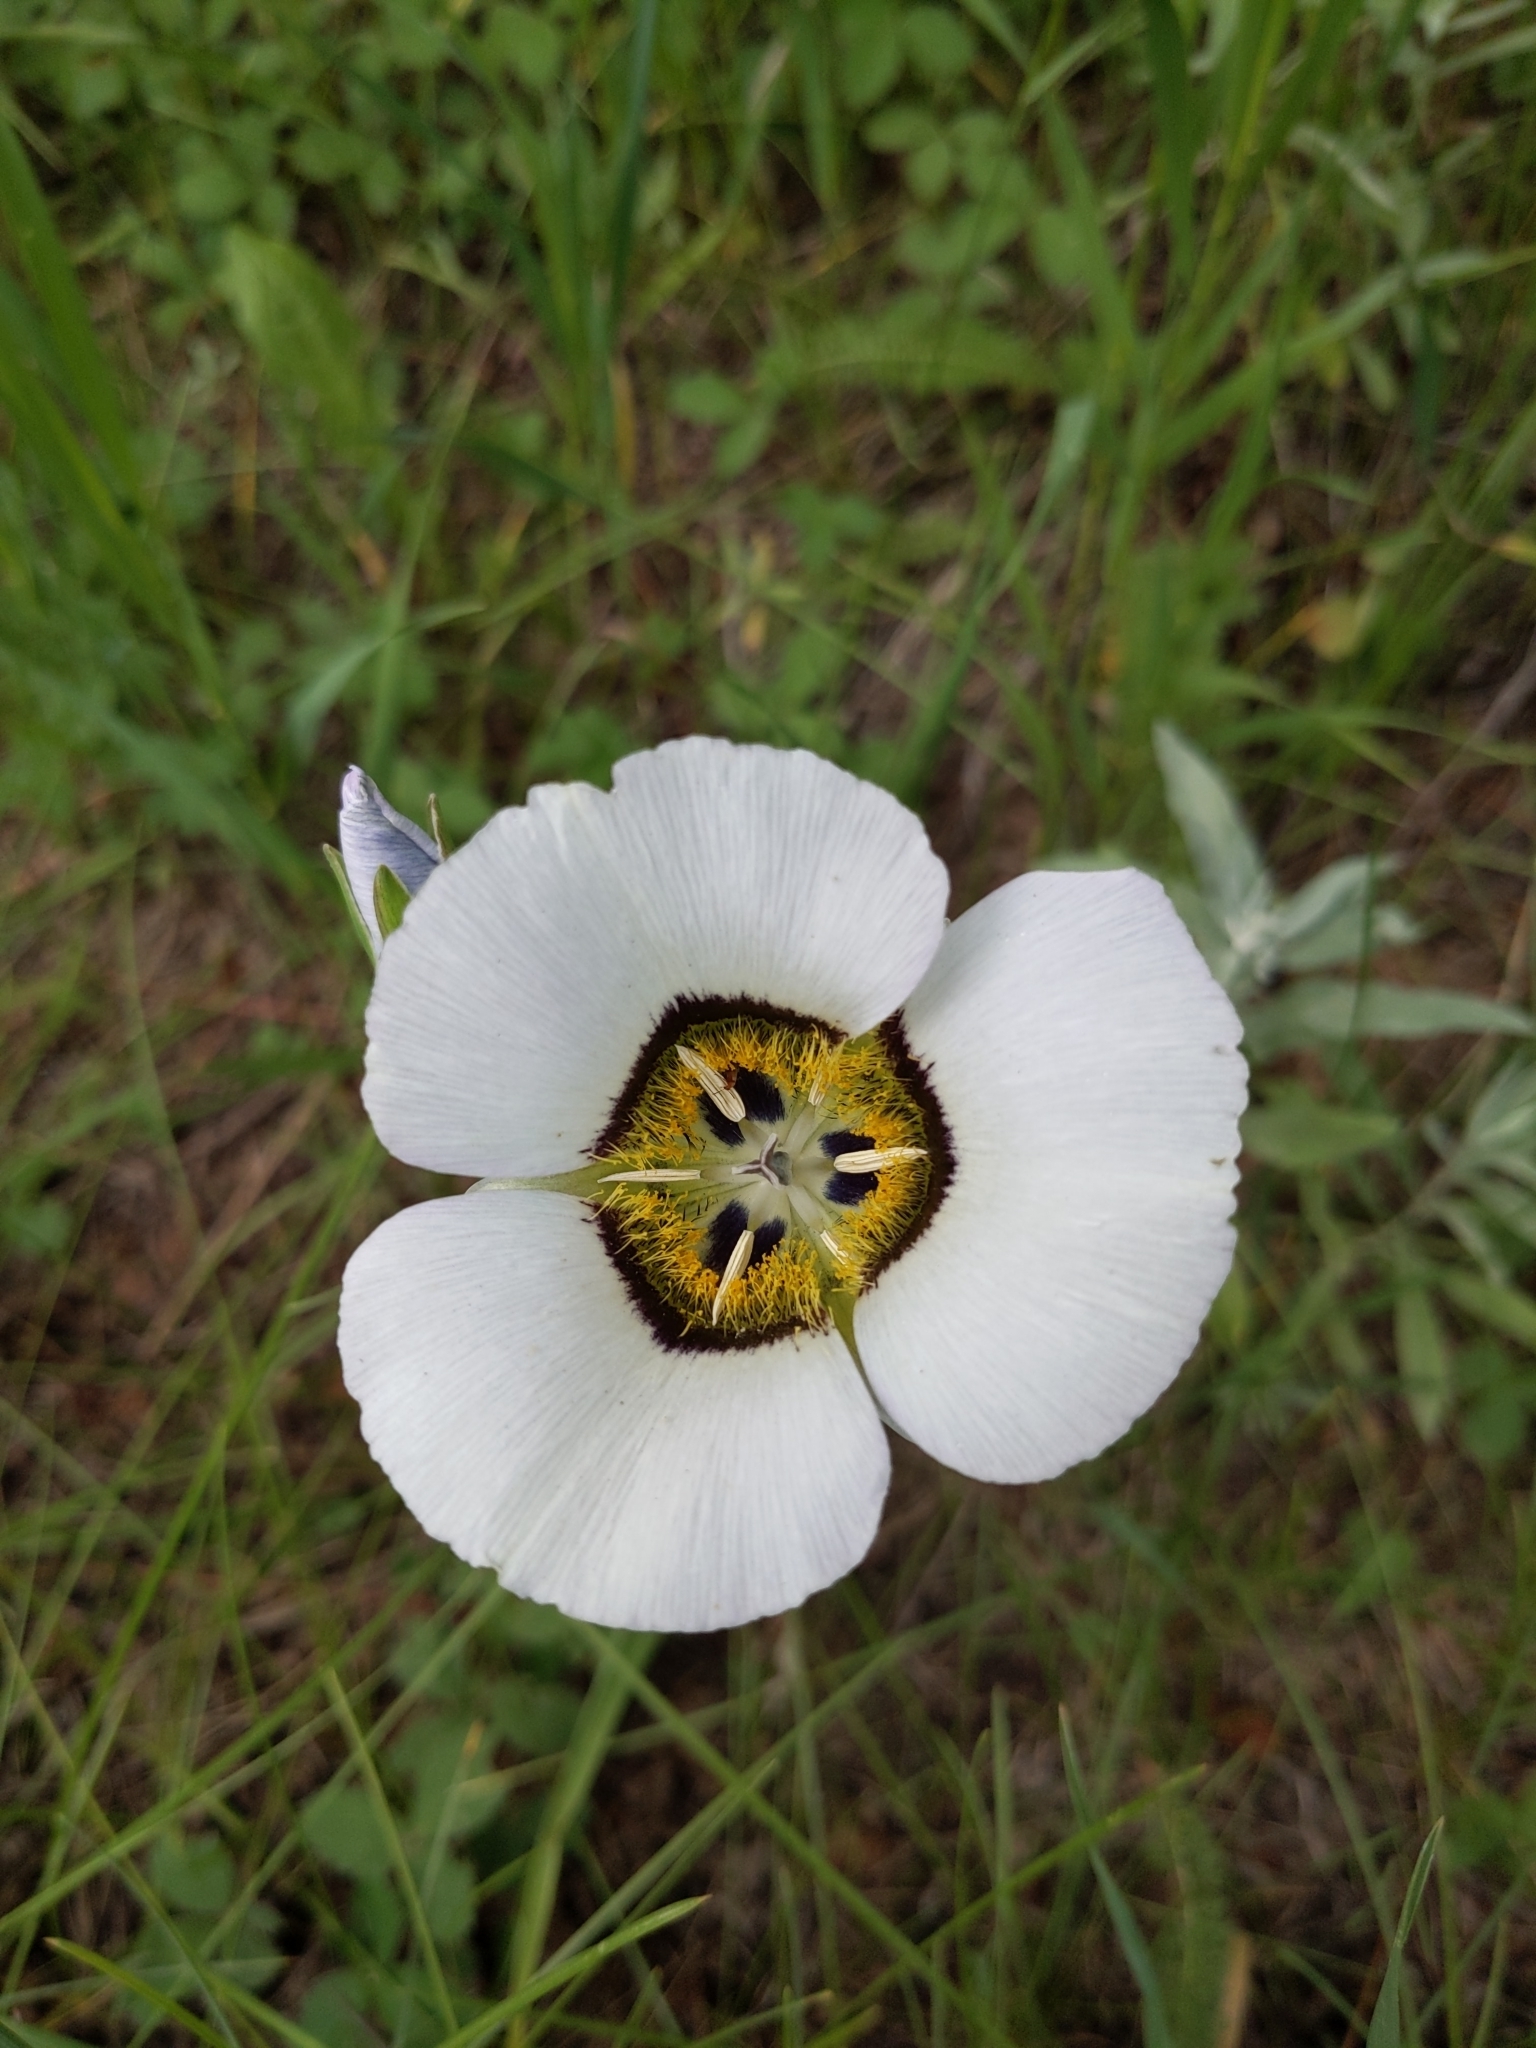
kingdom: Plantae
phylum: Tracheophyta
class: Liliopsida
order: Liliales
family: Liliaceae
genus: Calochortus
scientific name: Calochortus gunnisonii
